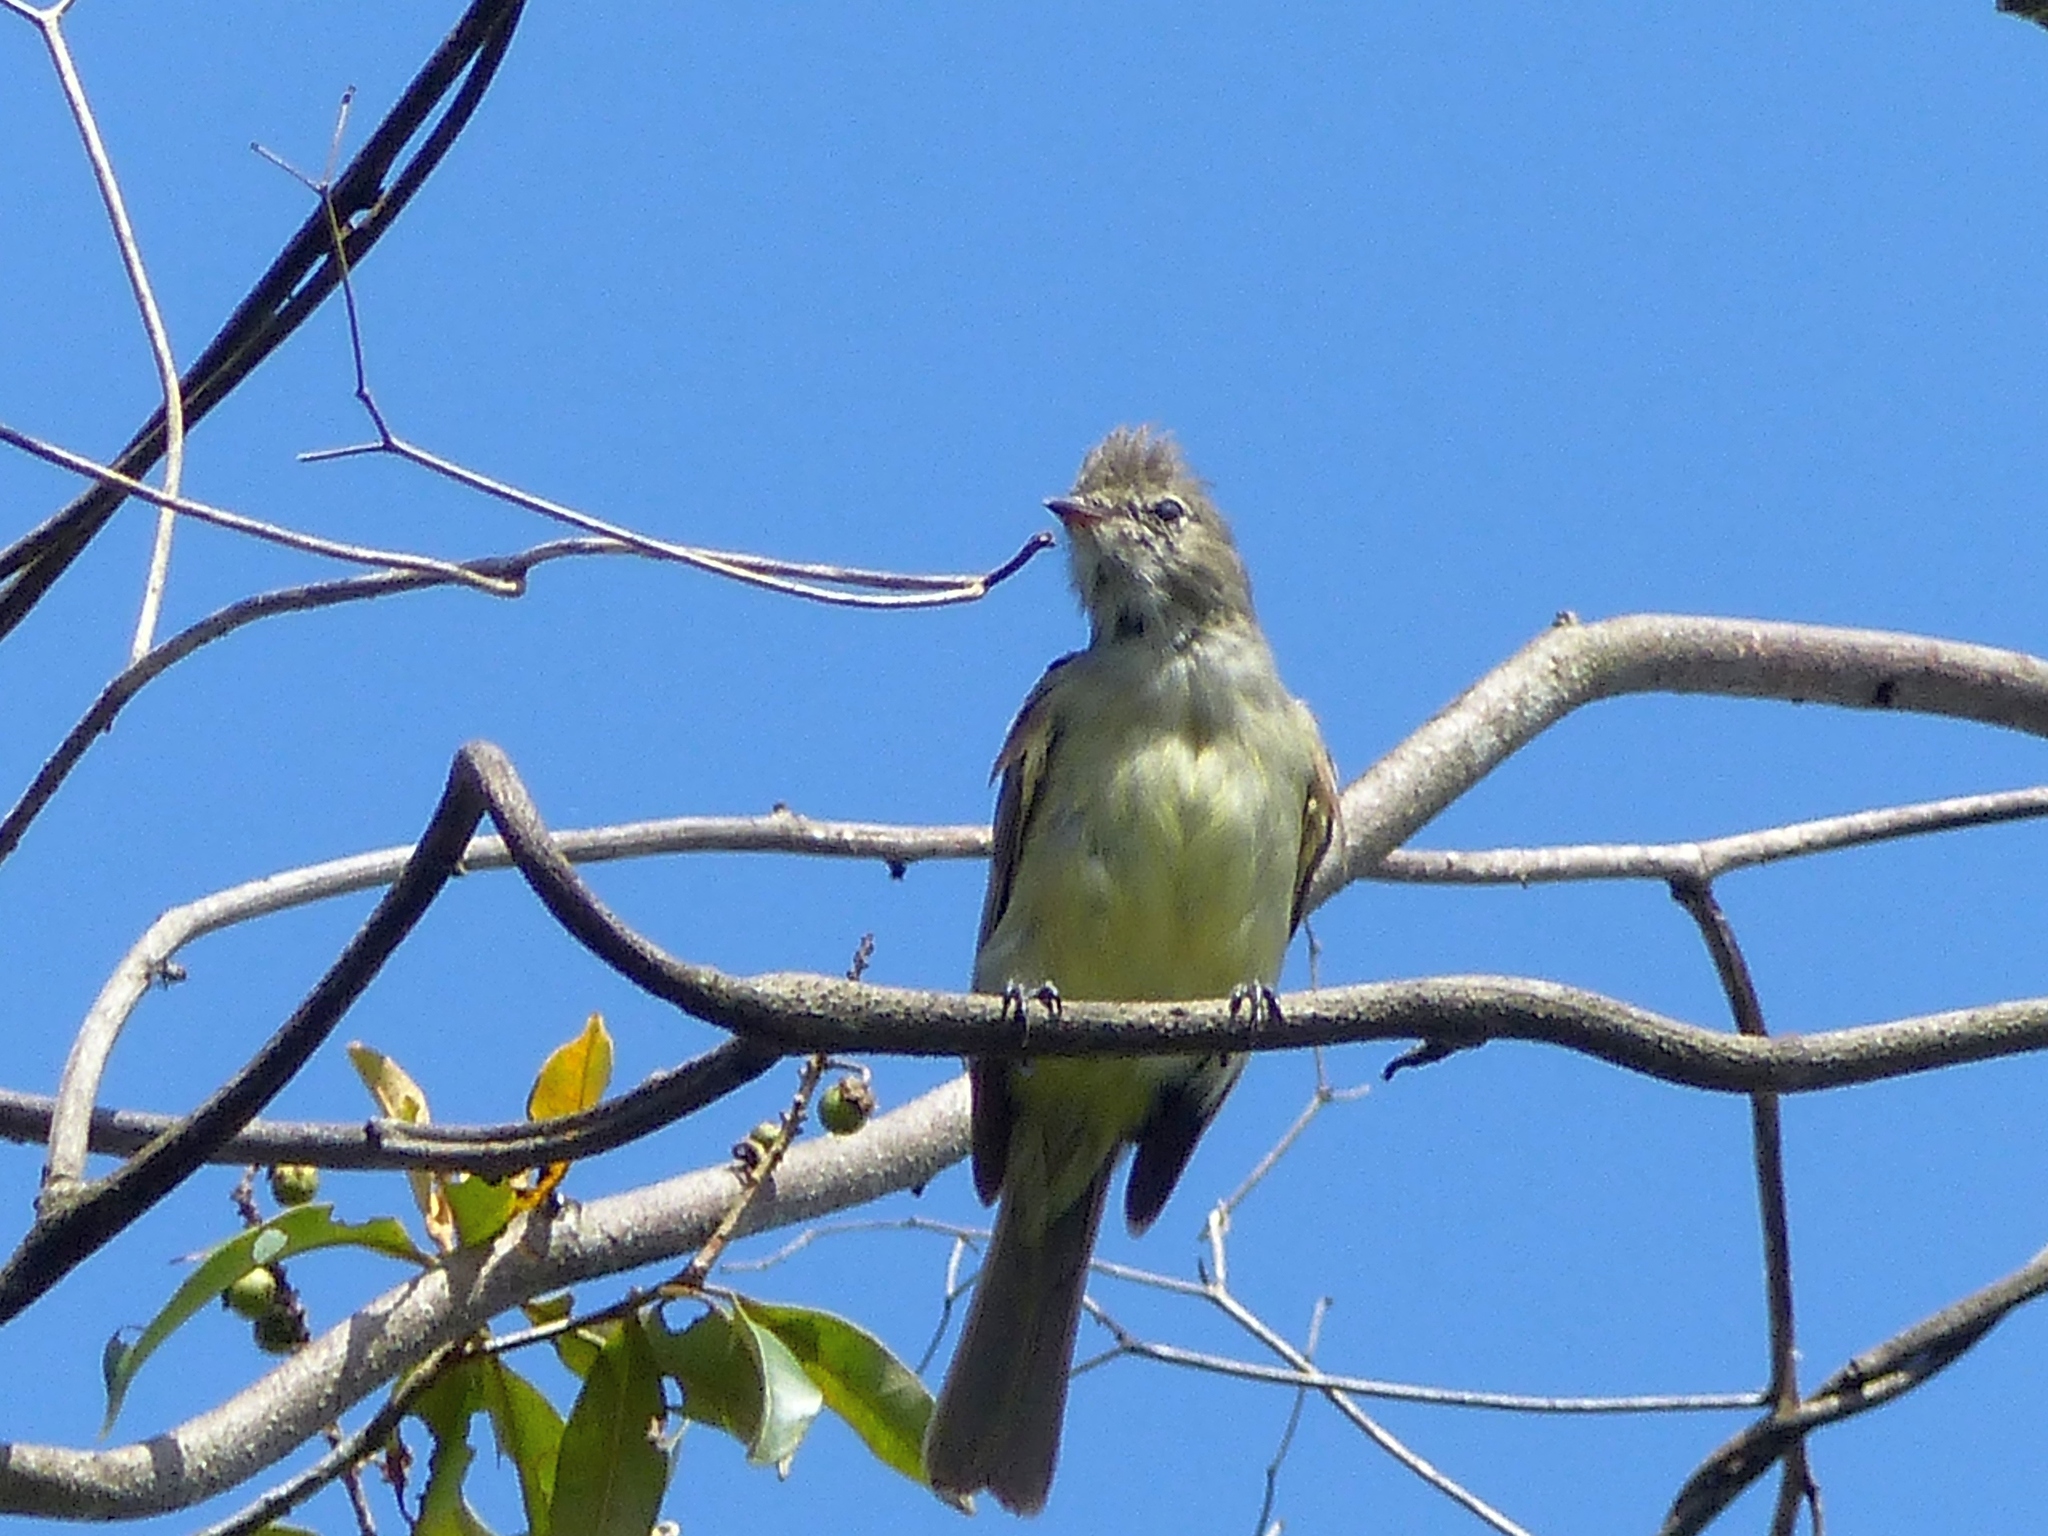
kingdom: Animalia
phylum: Chordata
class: Aves
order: Passeriformes
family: Tyrannidae
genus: Elaenia
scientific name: Elaenia flavogaster
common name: Yellow-bellied elaenia
